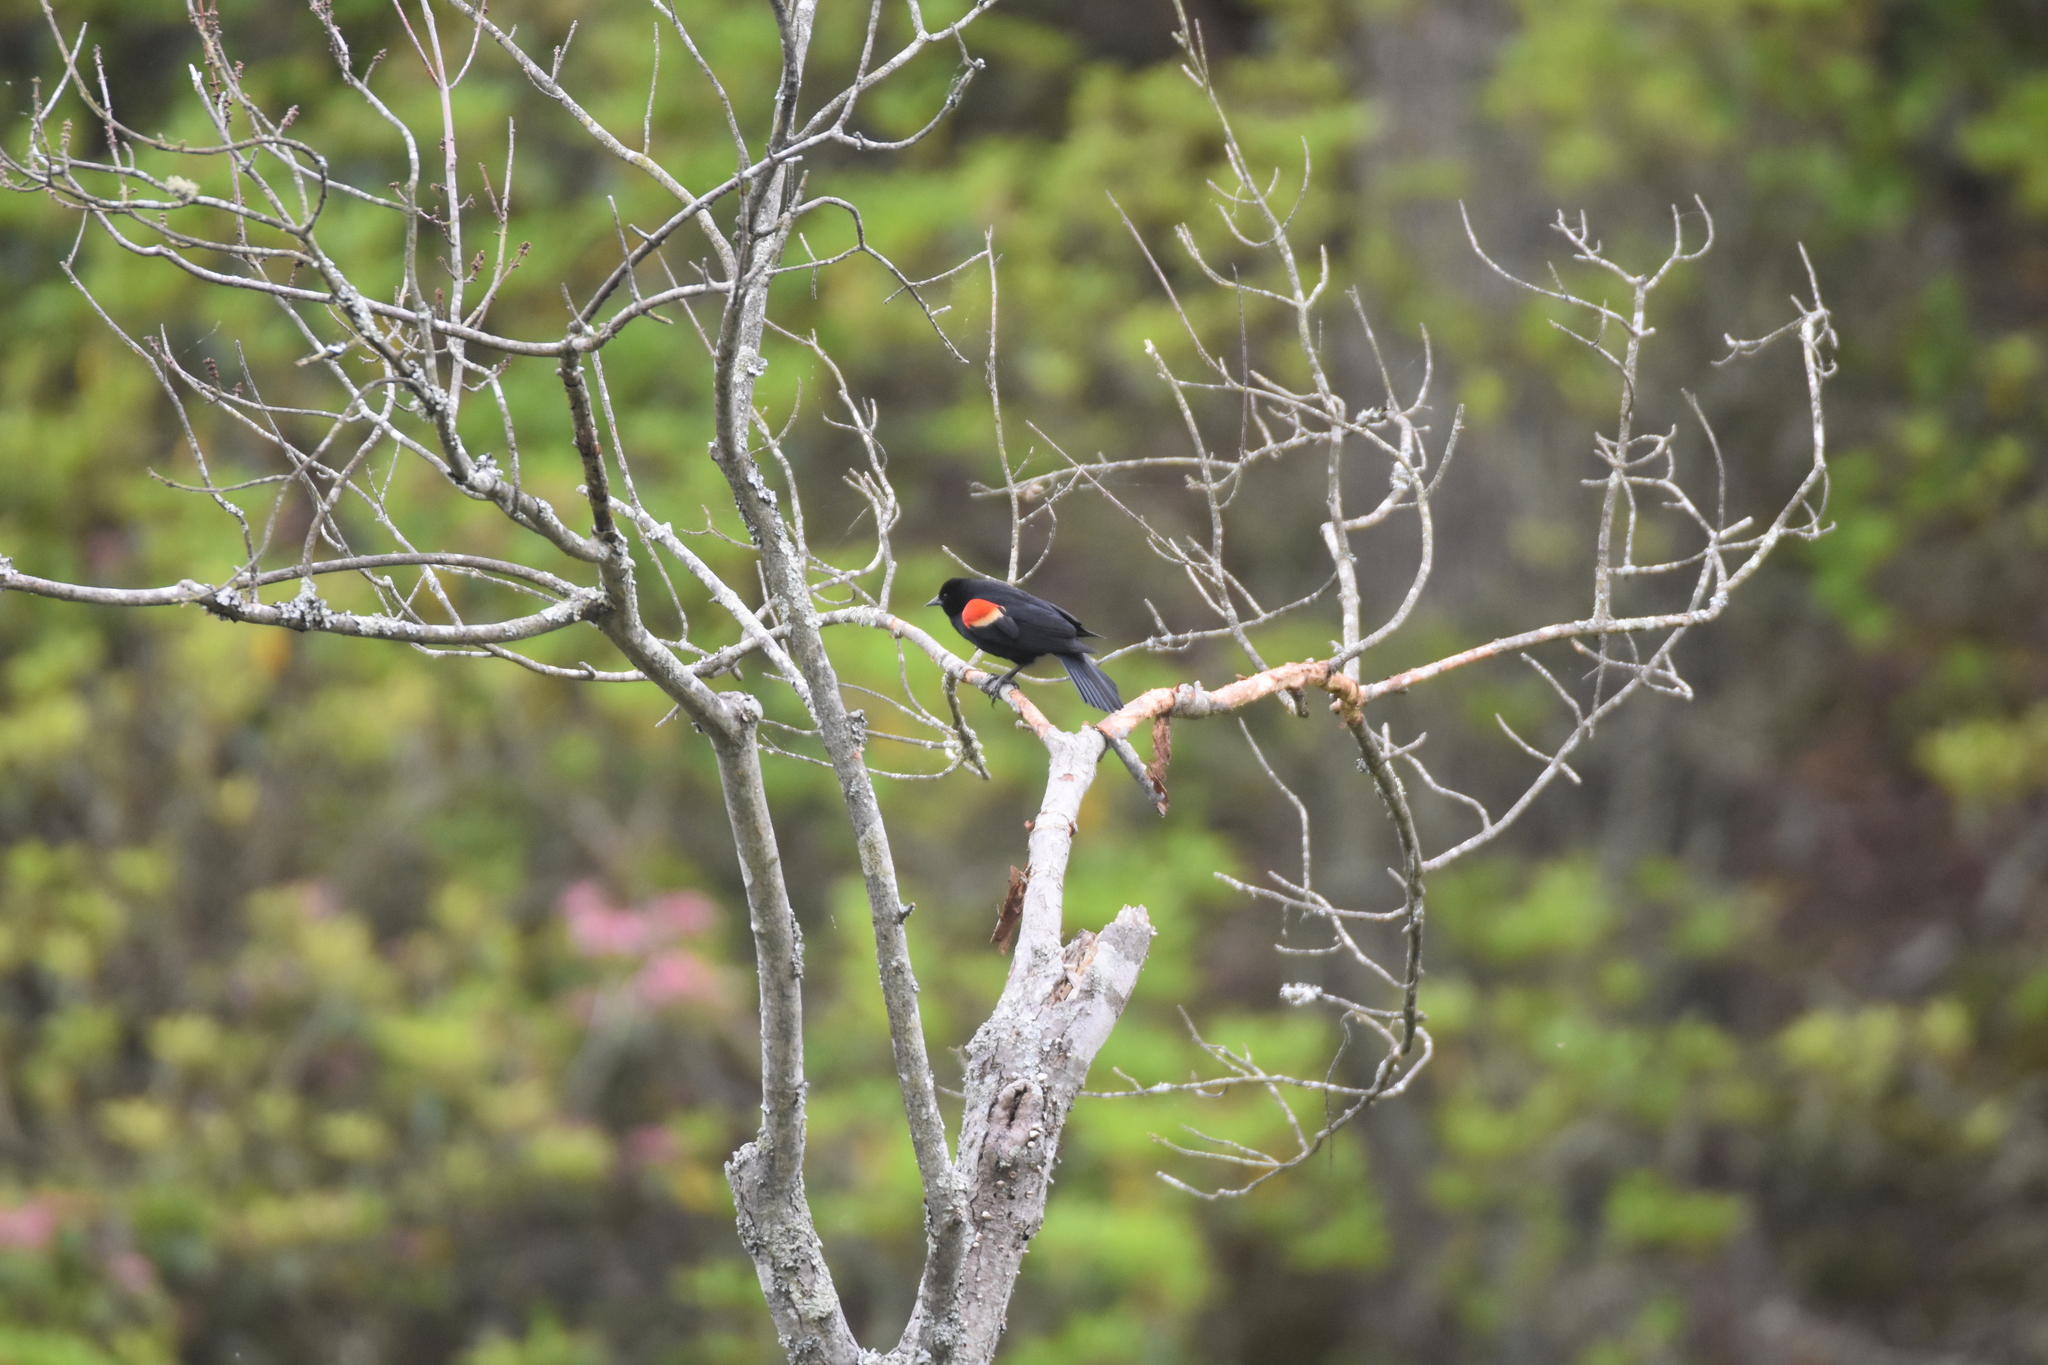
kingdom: Animalia
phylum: Chordata
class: Aves
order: Passeriformes
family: Icteridae
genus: Agelaius
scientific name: Agelaius phoeniceus
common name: Red-winged blackbird
